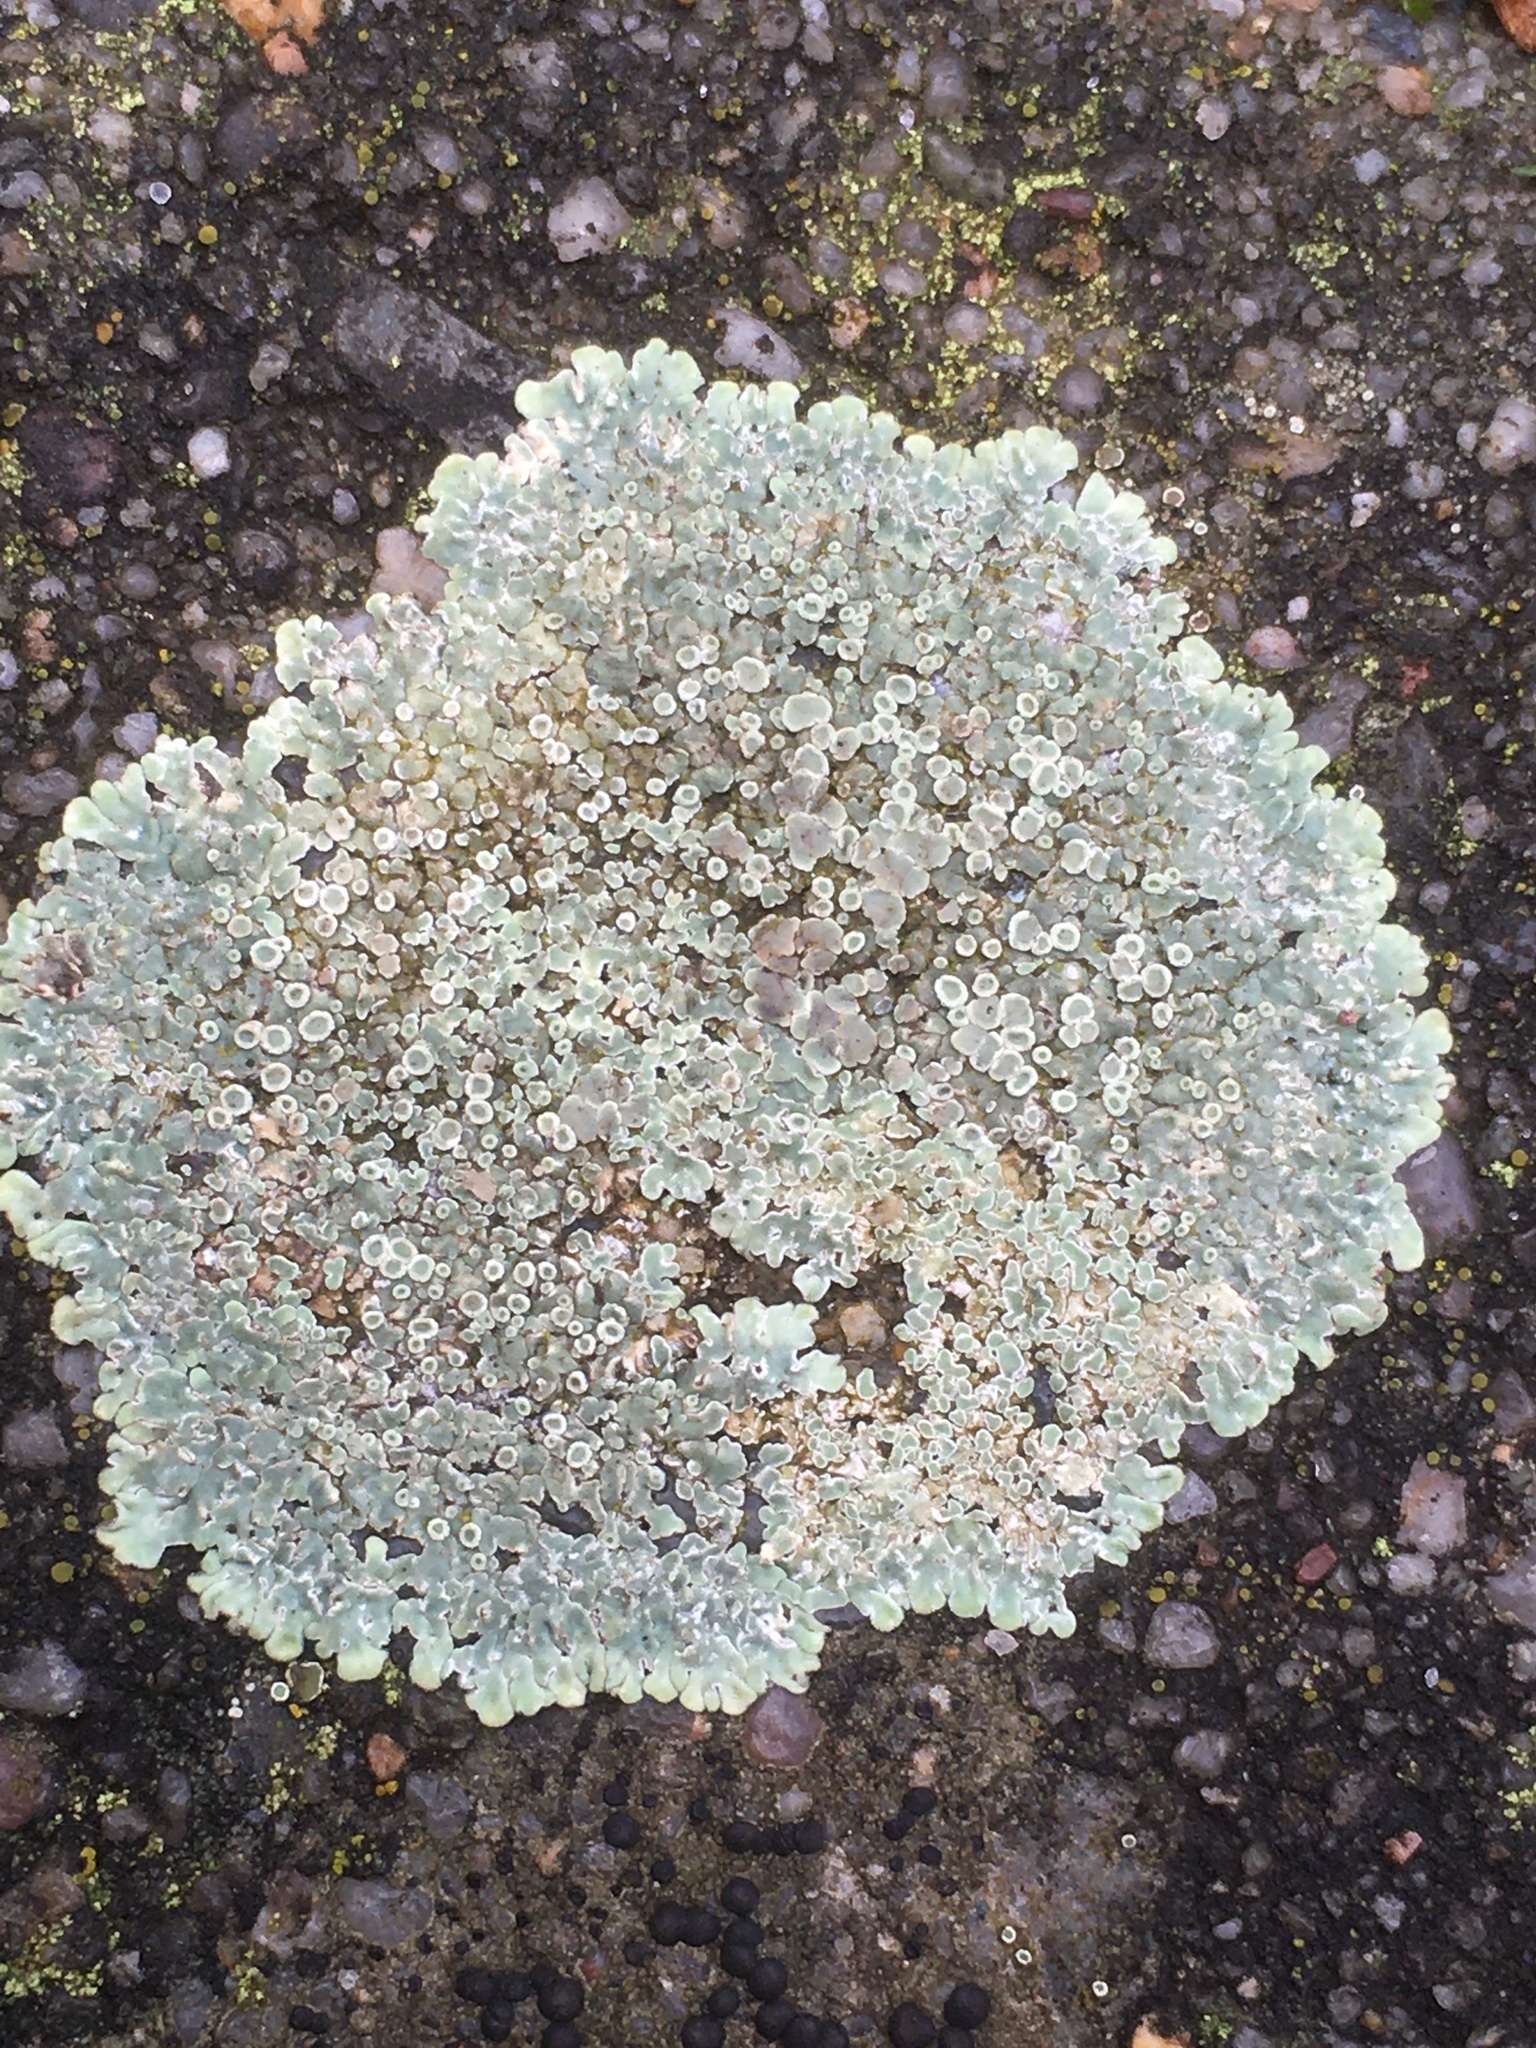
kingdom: Fungi
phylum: Ascomycota
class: Lecanoromycetes
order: Lecanorales
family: Lecanoraceae
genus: Protoparmeliopsis
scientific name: Protoparmeliopsis muralis
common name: Stonewall rim lichen
